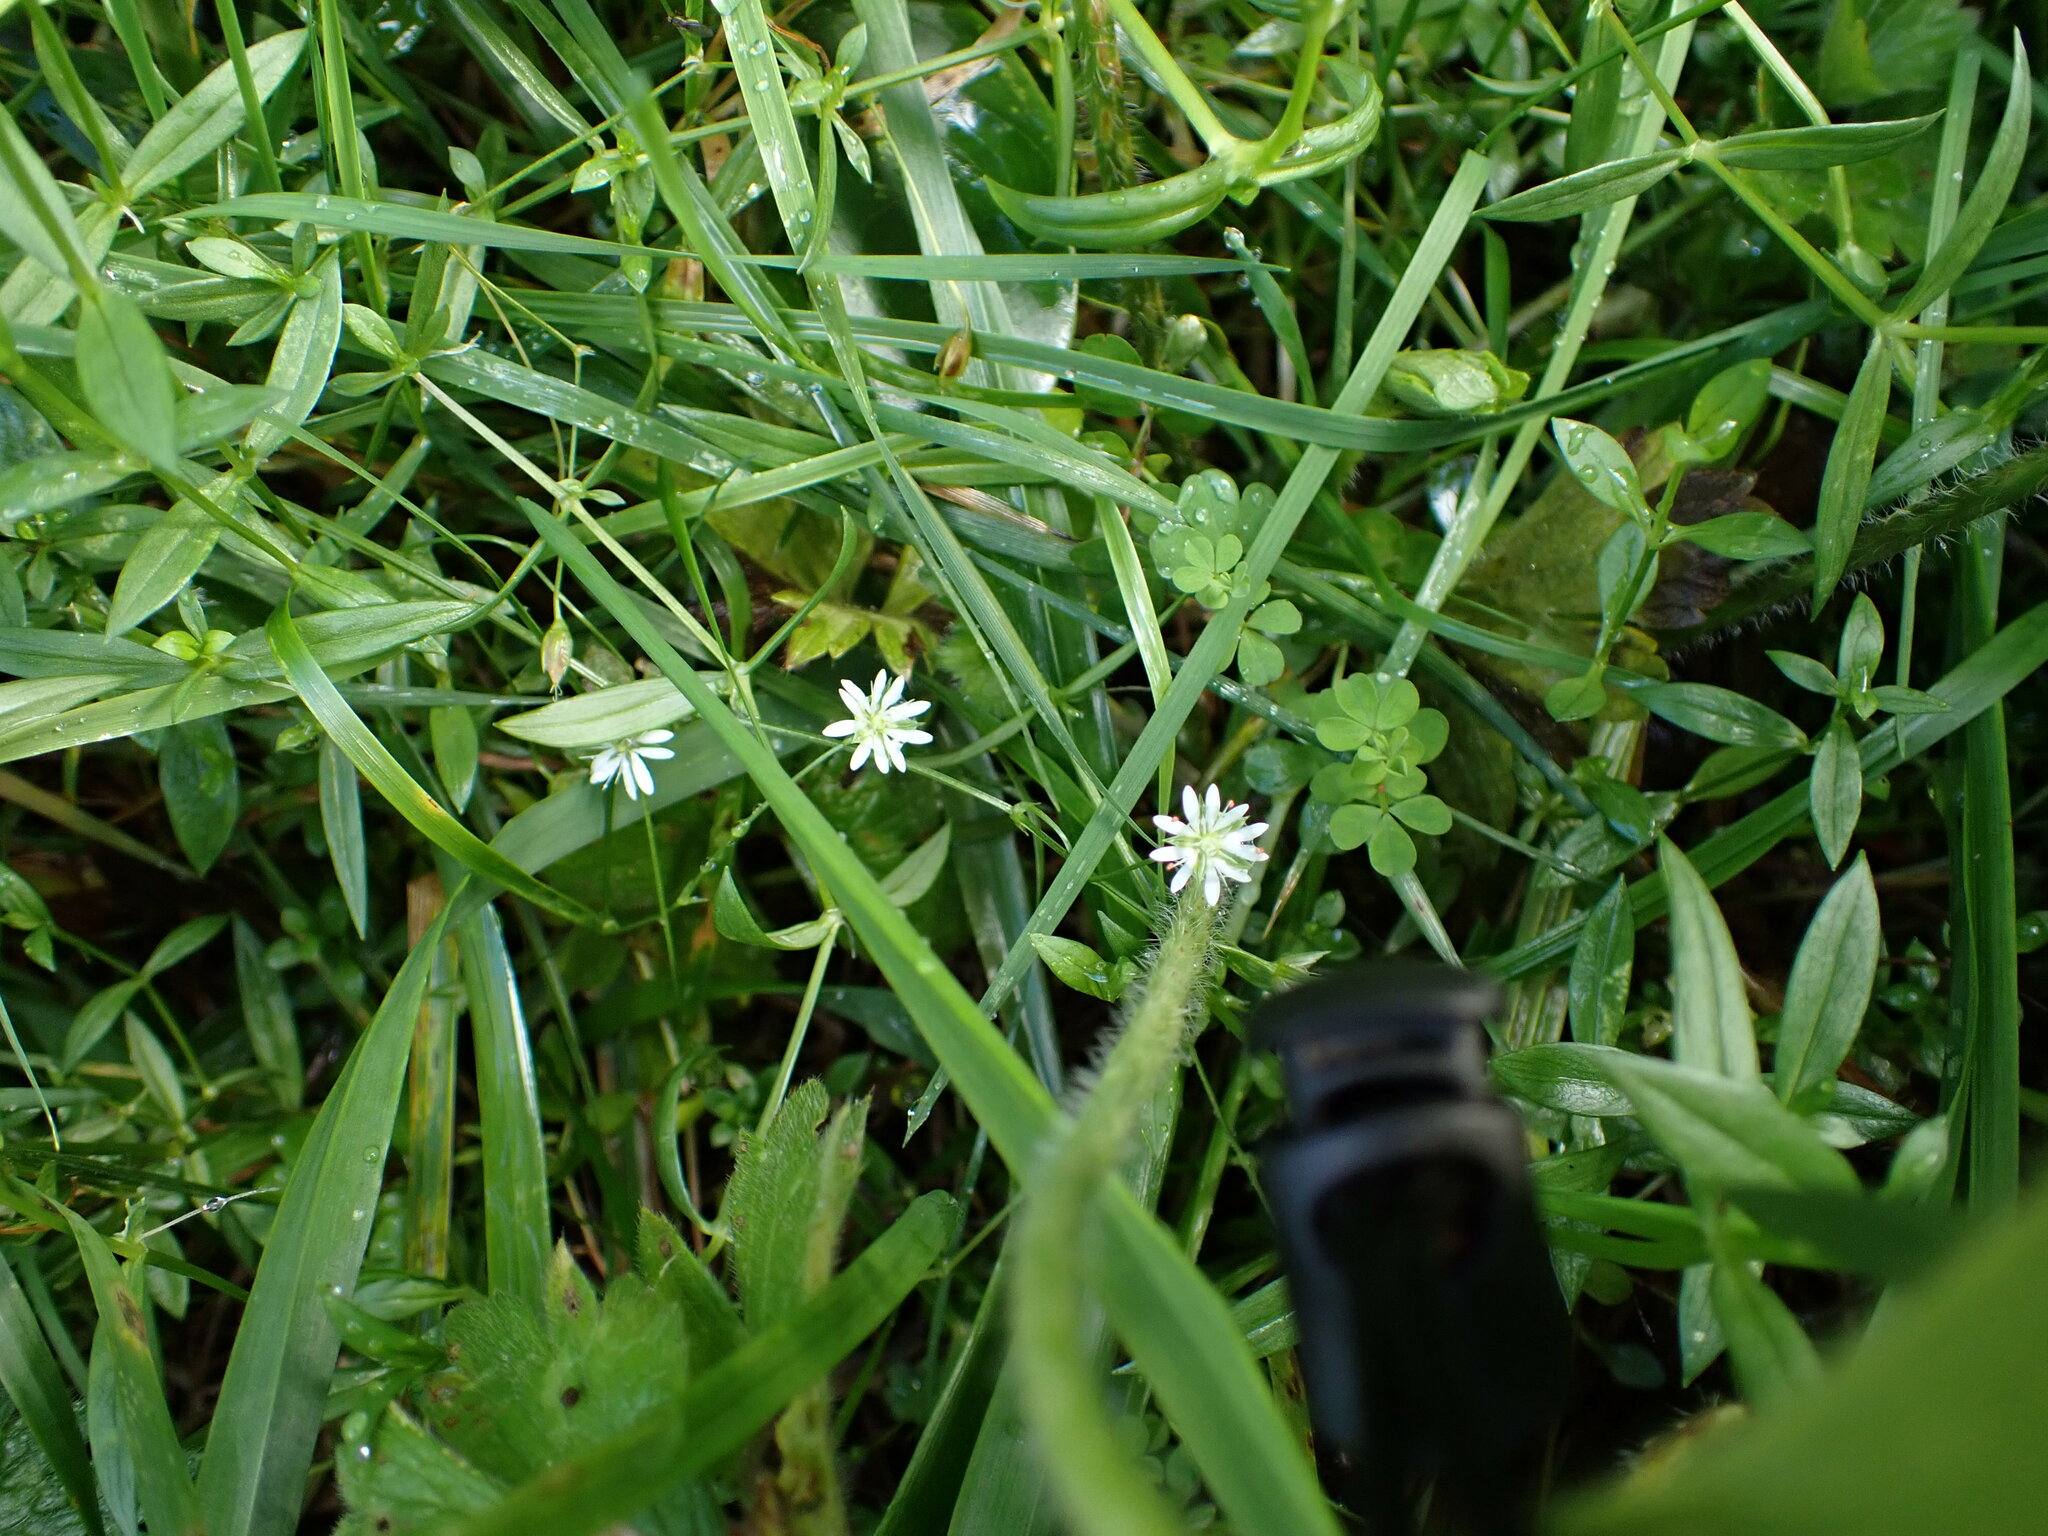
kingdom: Plantae
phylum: Tracheophyta
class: Magnoliopsida
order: Caryophyllales
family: Caryophyllaceae
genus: Stellaria
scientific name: Stellaria graminea
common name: Grass-like starwort
